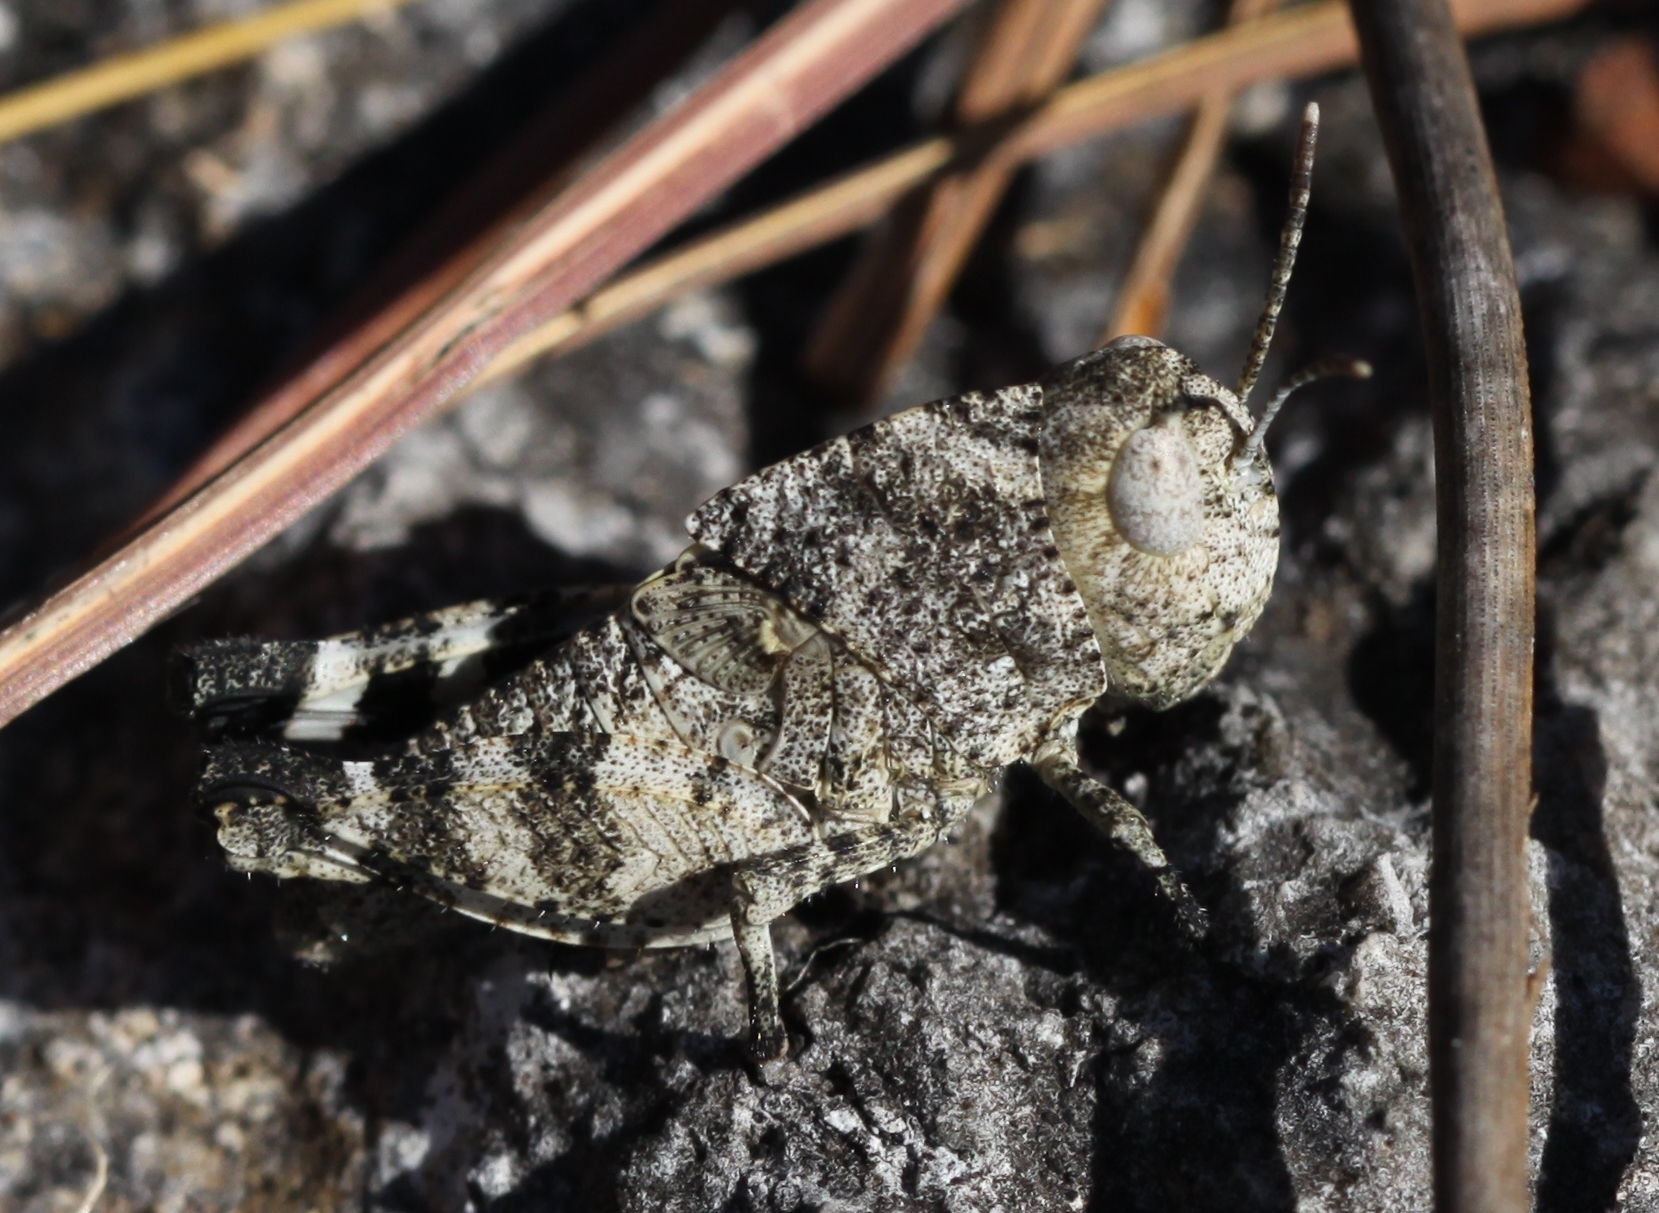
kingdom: Animalia
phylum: Arthropoda
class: Insecta
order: Orthoptera
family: Acrididae
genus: Arphia
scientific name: Arphia granulata
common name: Southern yellow-winged grasshopper
